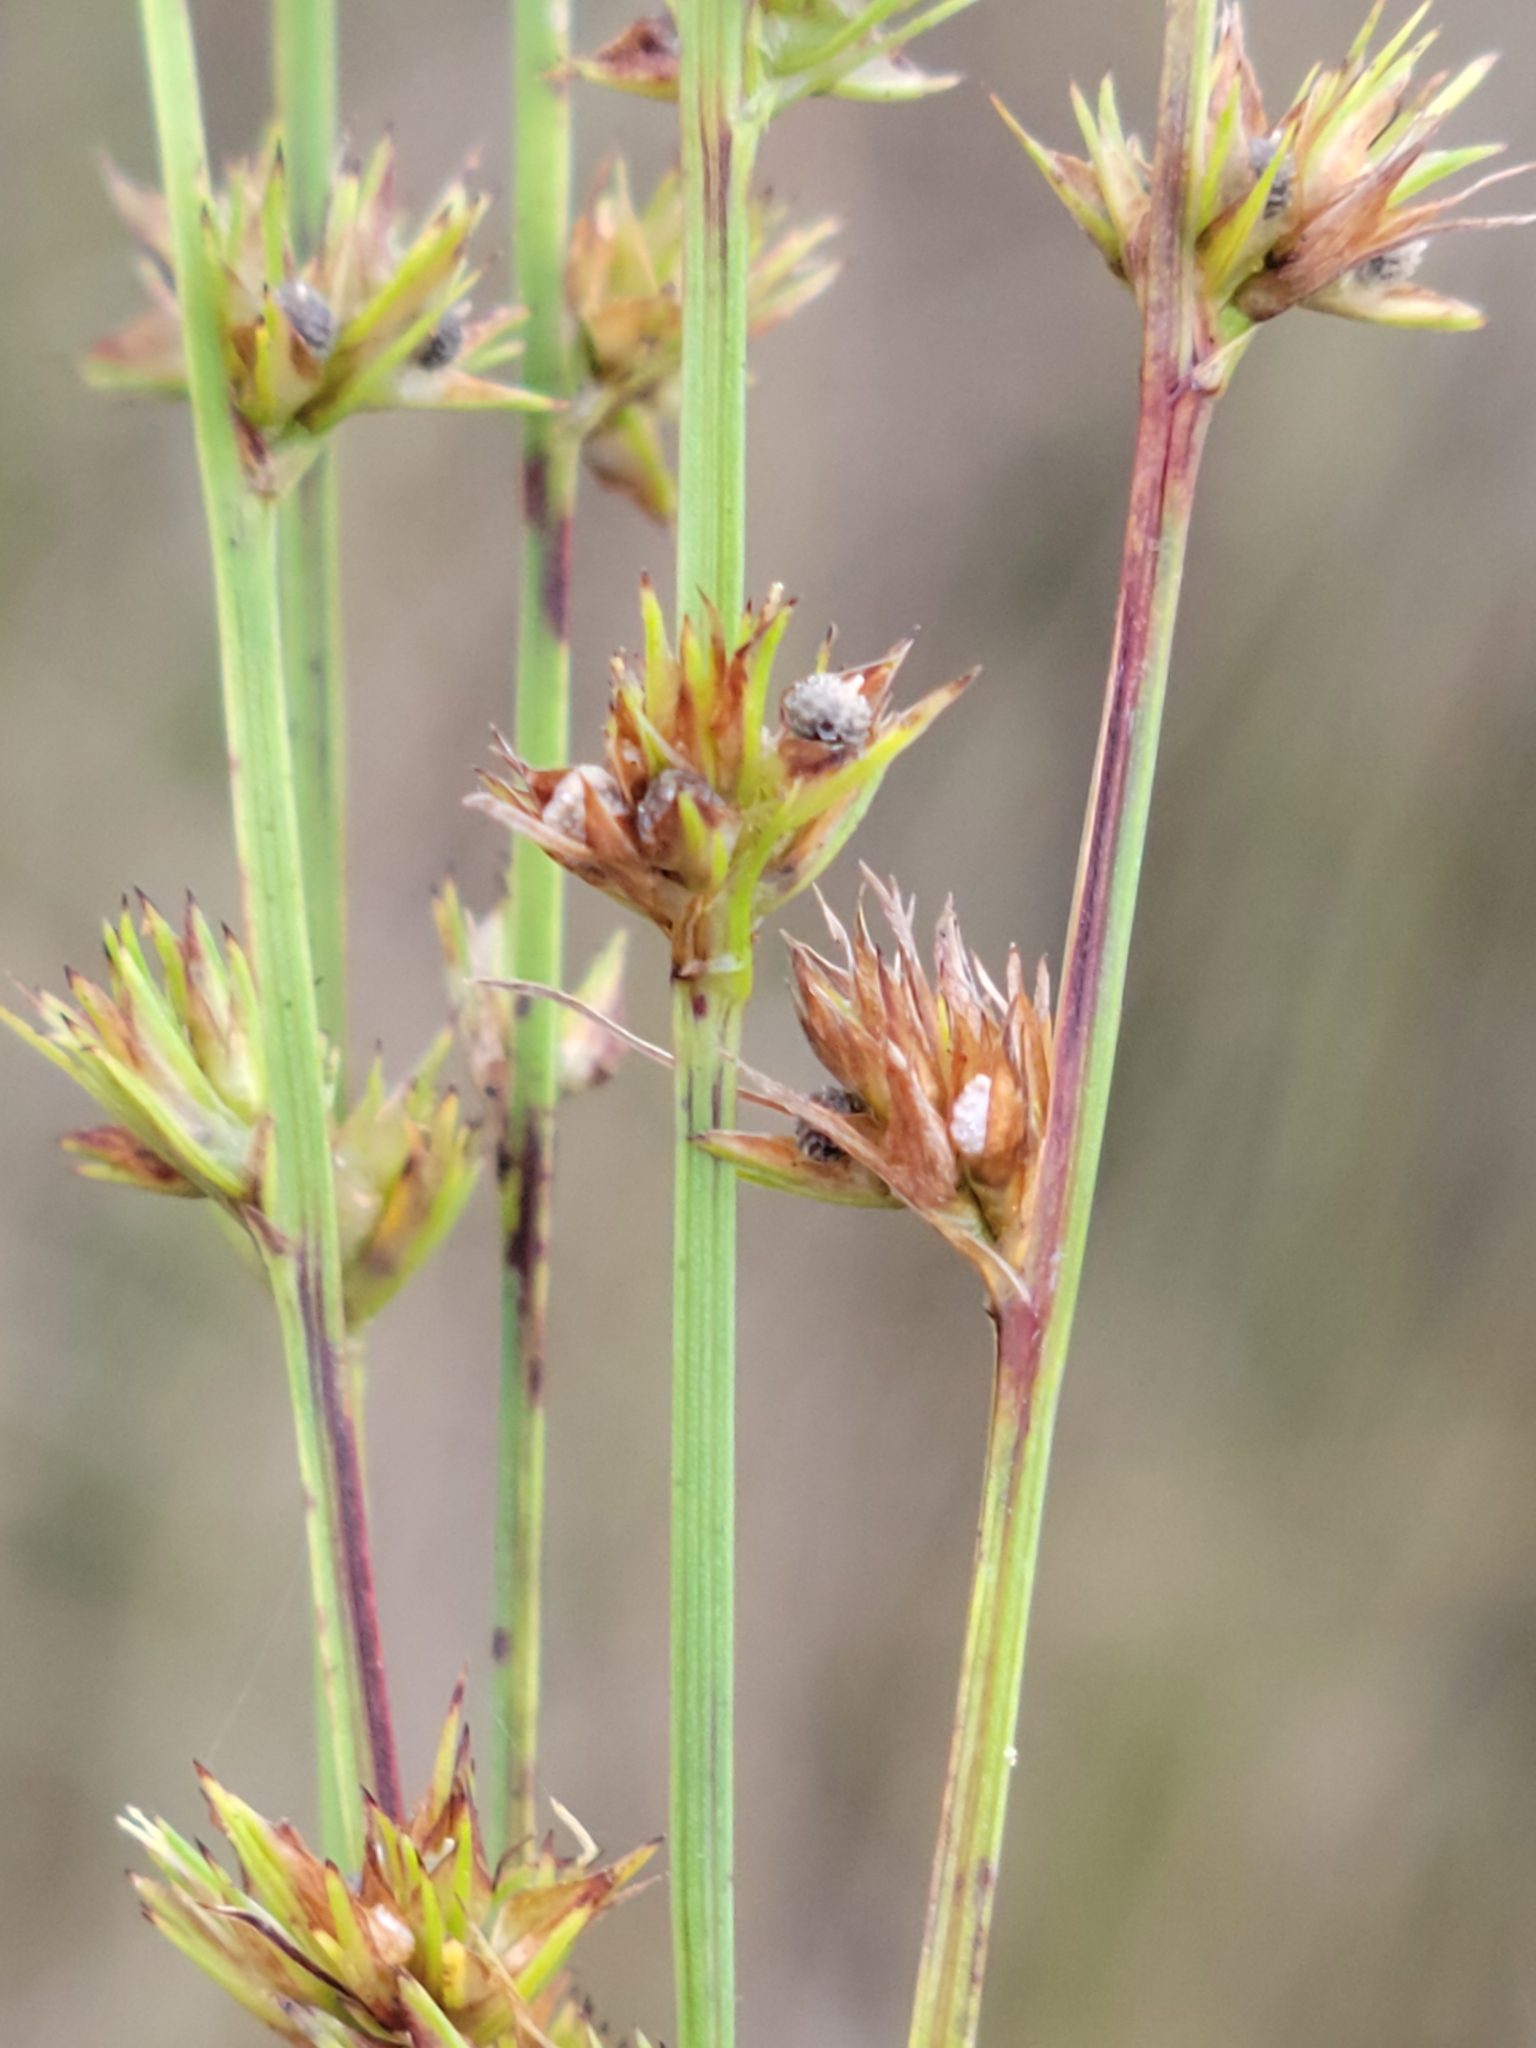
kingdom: Plantae
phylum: Tracheophyta
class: Liliopsida
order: Poales
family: Cyperaceae
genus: Scleria
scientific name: Scleria verticillata
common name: Low nutrush
